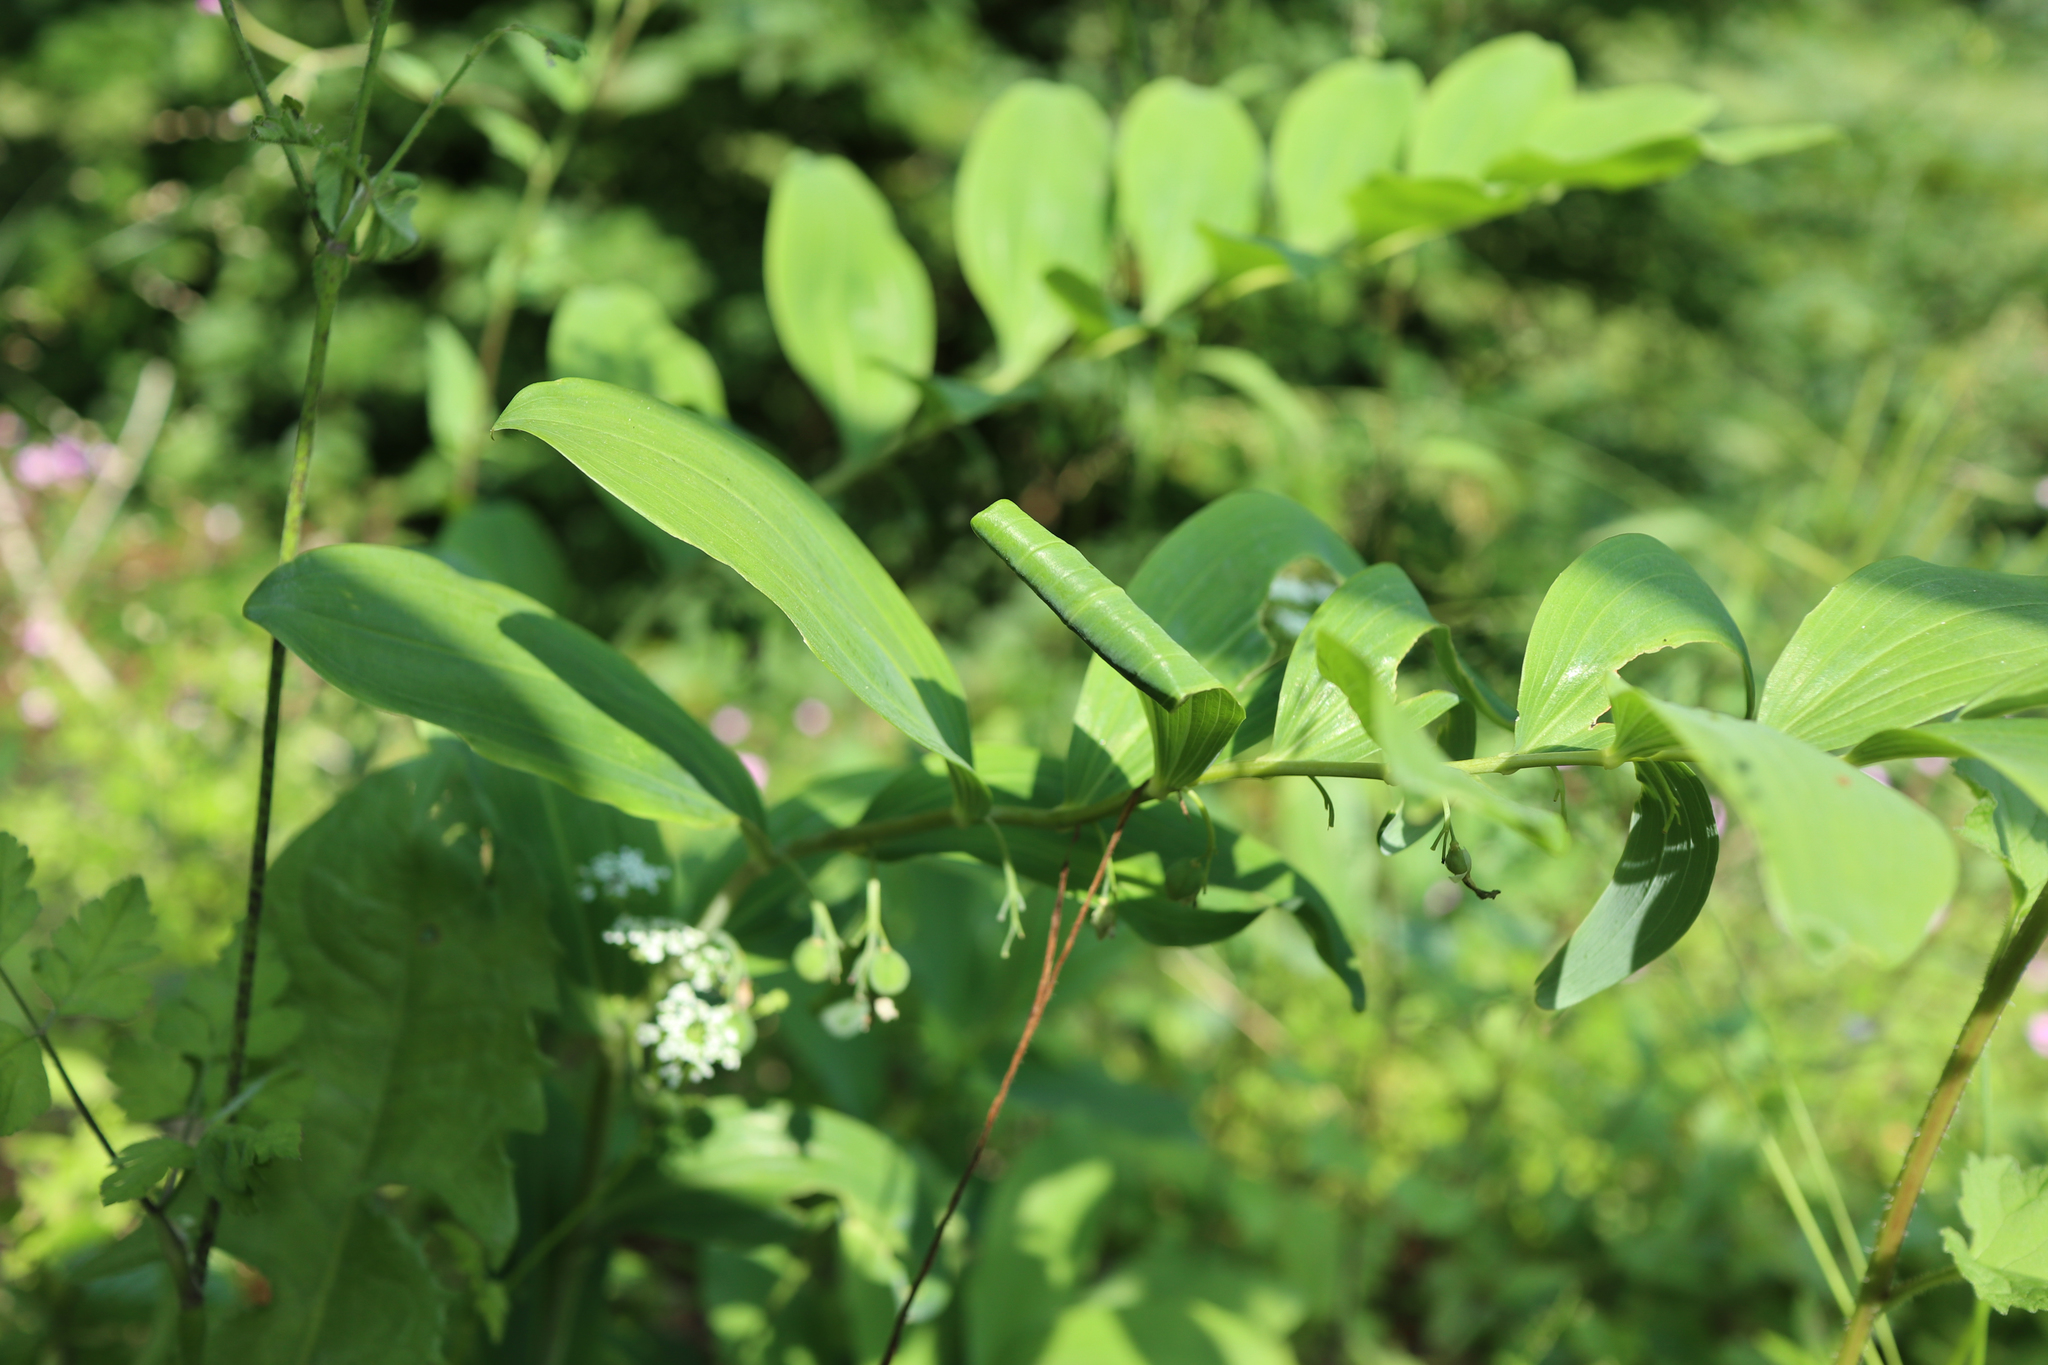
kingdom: Plantae
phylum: Tracheophyta
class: Liliopsida
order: Asparagales
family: Asparagaceae
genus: Polygonatum
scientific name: Polygonatum multiflorum
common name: Solomon's-seal
